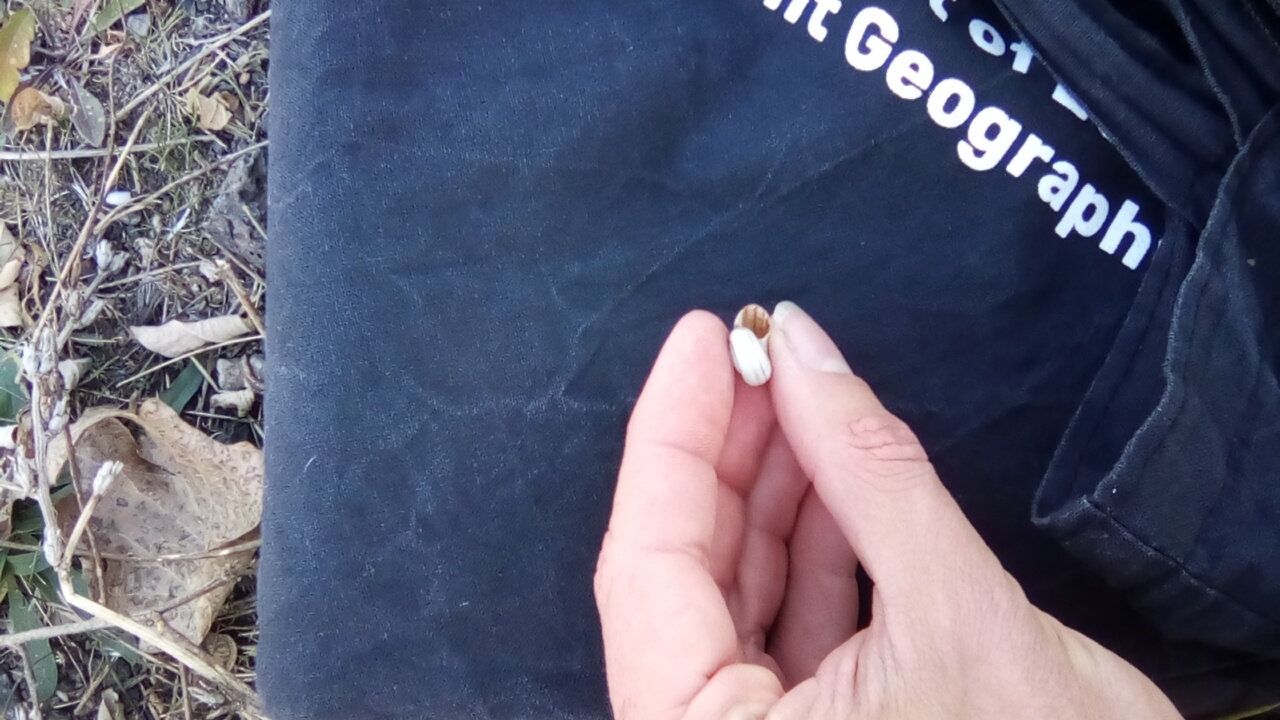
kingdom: Animalia
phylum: Mollusca
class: Gastropoda
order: Stylommatophora
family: Geomitridae
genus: Xeropicta
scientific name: Xeropicta derbentina
